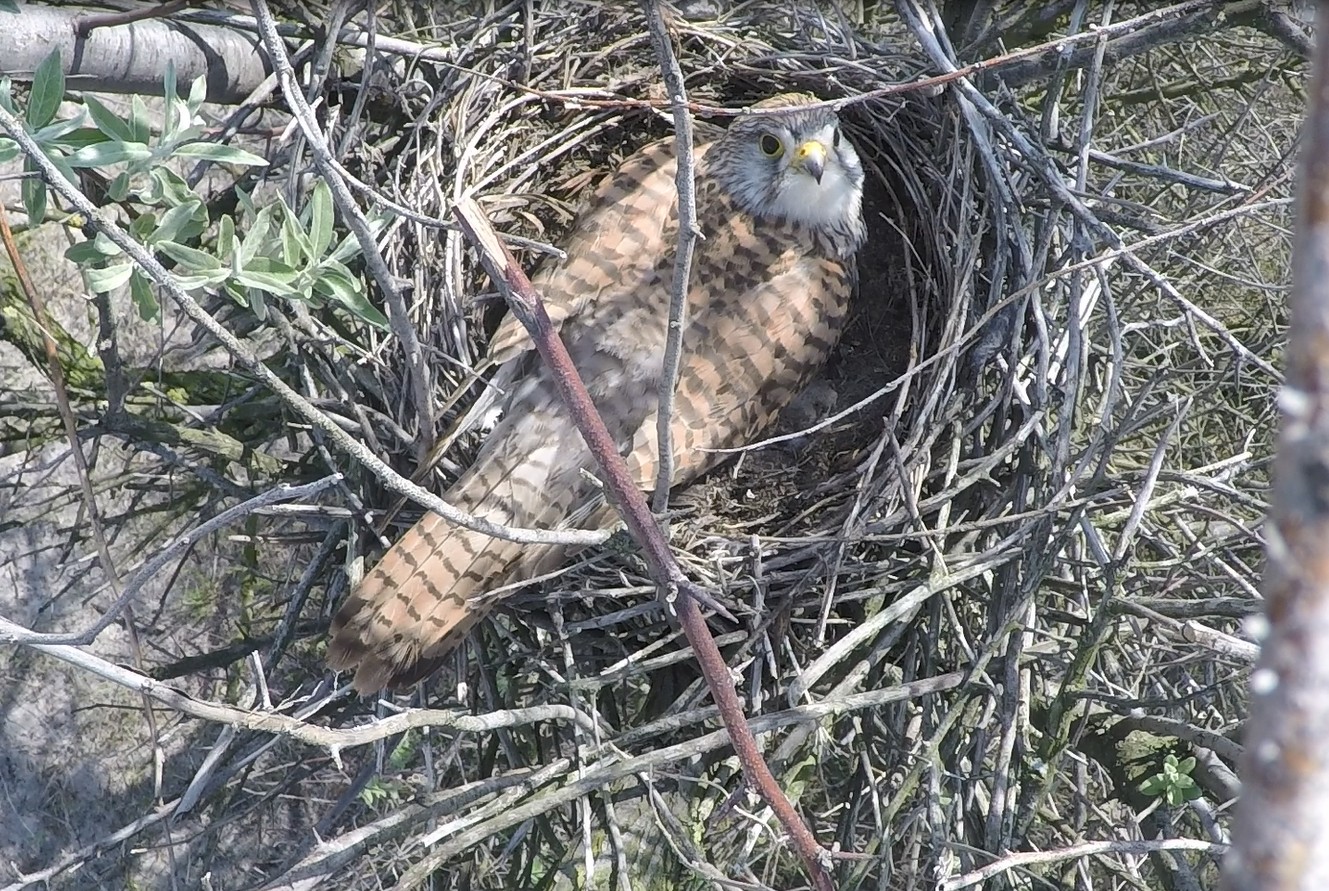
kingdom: Animalia
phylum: Chordata
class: Aves
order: Falconiformes
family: Falconidae
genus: Falco
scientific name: Falco tinnunculus
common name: Common kestrel
